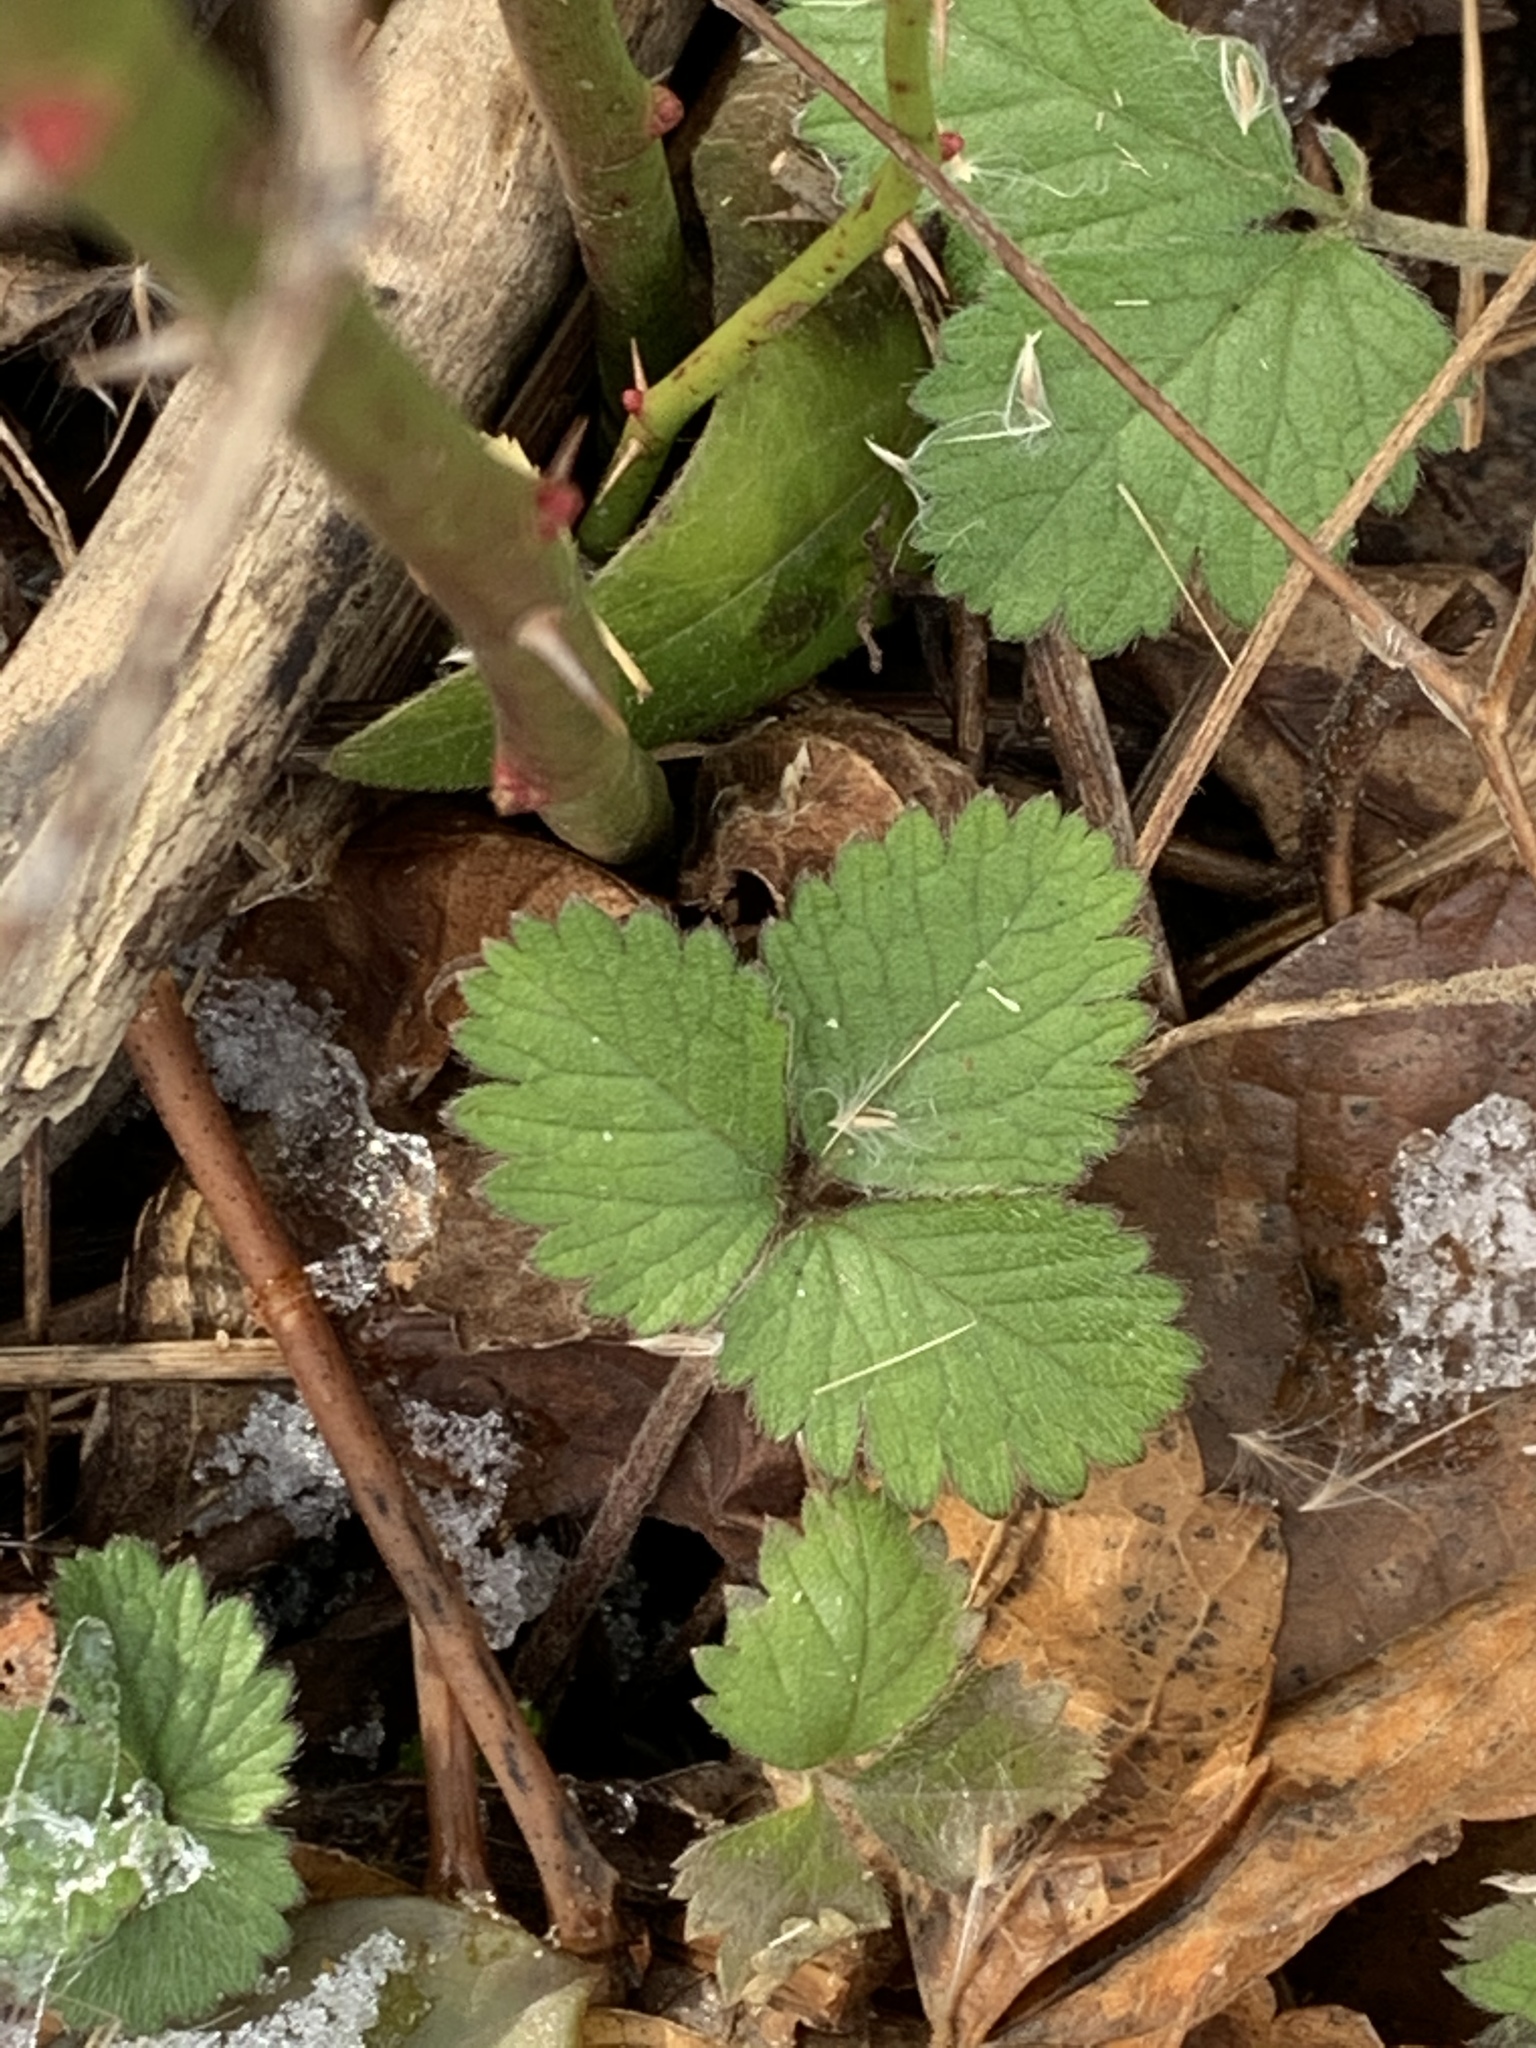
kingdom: Plantae
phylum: Tracheophyta
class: Magnoliopsida
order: Rosales
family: Rosaceae
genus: Potentilla
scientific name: Potentilla indica
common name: Yellow-flowered strawberry
